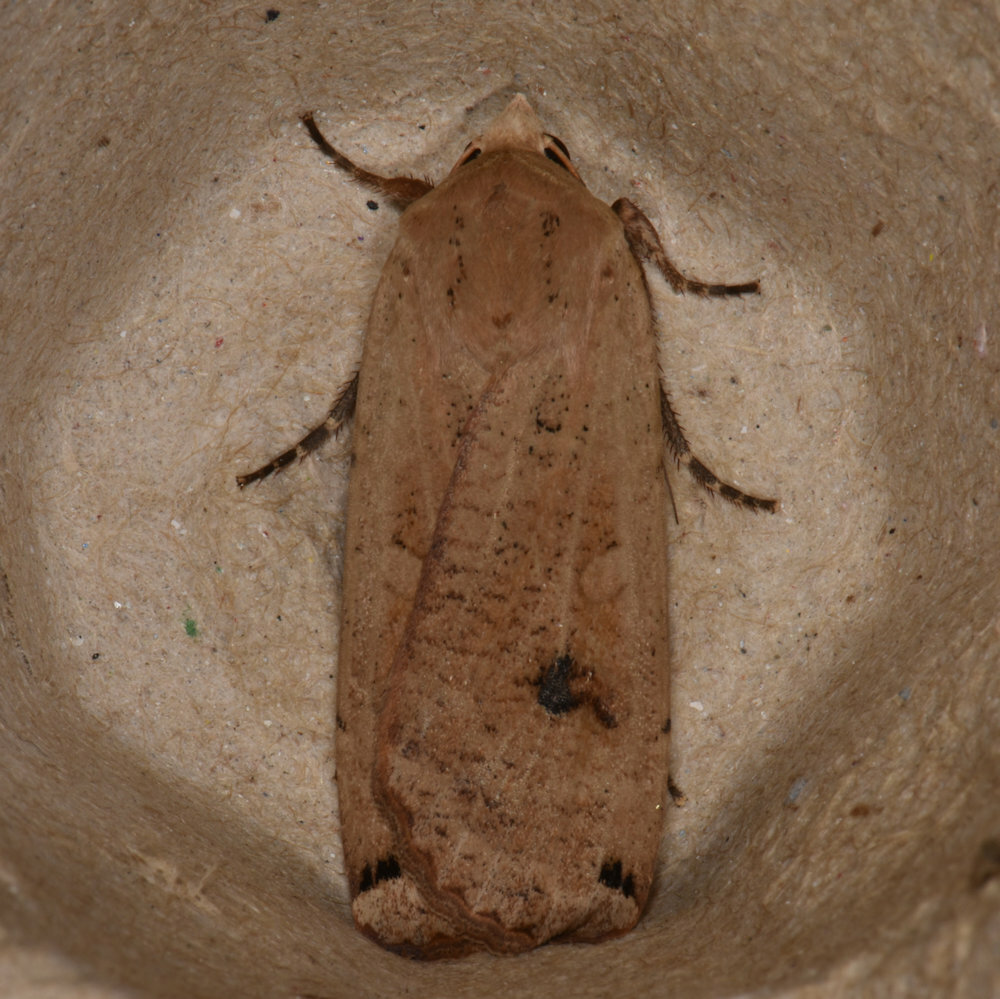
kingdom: Animalia
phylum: Arthropoda
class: Insecta
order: Lepidoptera
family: Noctuidae
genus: Noctua
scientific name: Noctua pronuba
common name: Large yellow underwing
